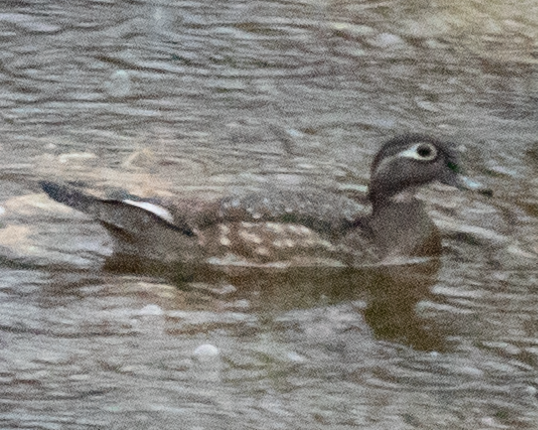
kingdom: Animalia
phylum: Chordata
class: Aves
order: Anseriformes
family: Anatidae
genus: Aix
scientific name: Aix sponsa
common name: Wood duck
